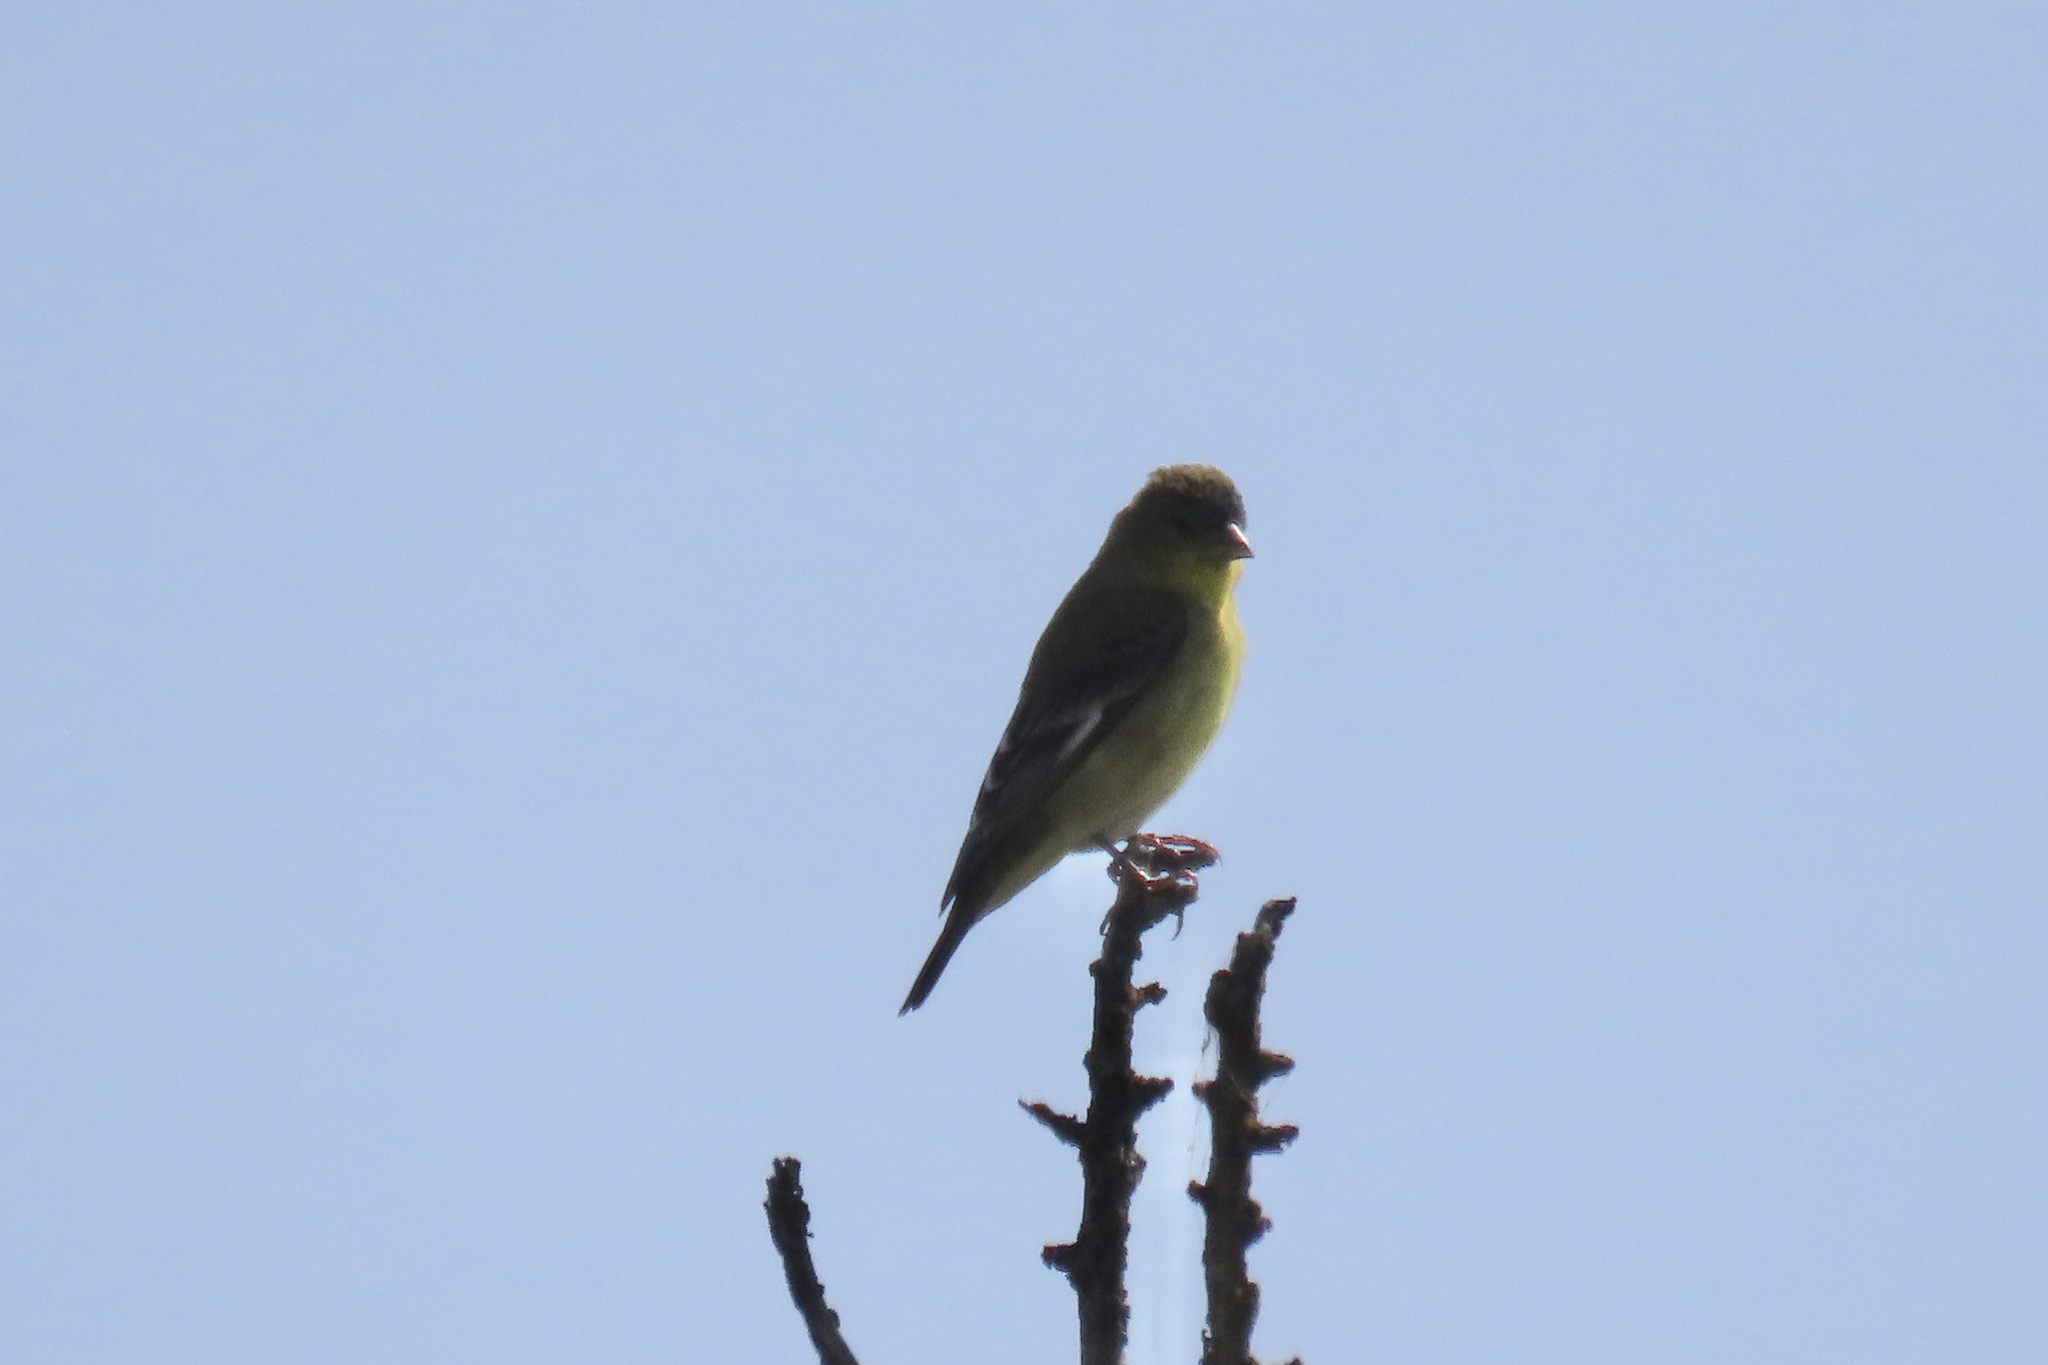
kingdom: Animalia
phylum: Chordata
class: Aves
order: Passeriformes
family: Fringillidae
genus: Spinus
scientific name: Spinus psaltria
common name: Lesser goldfinch
